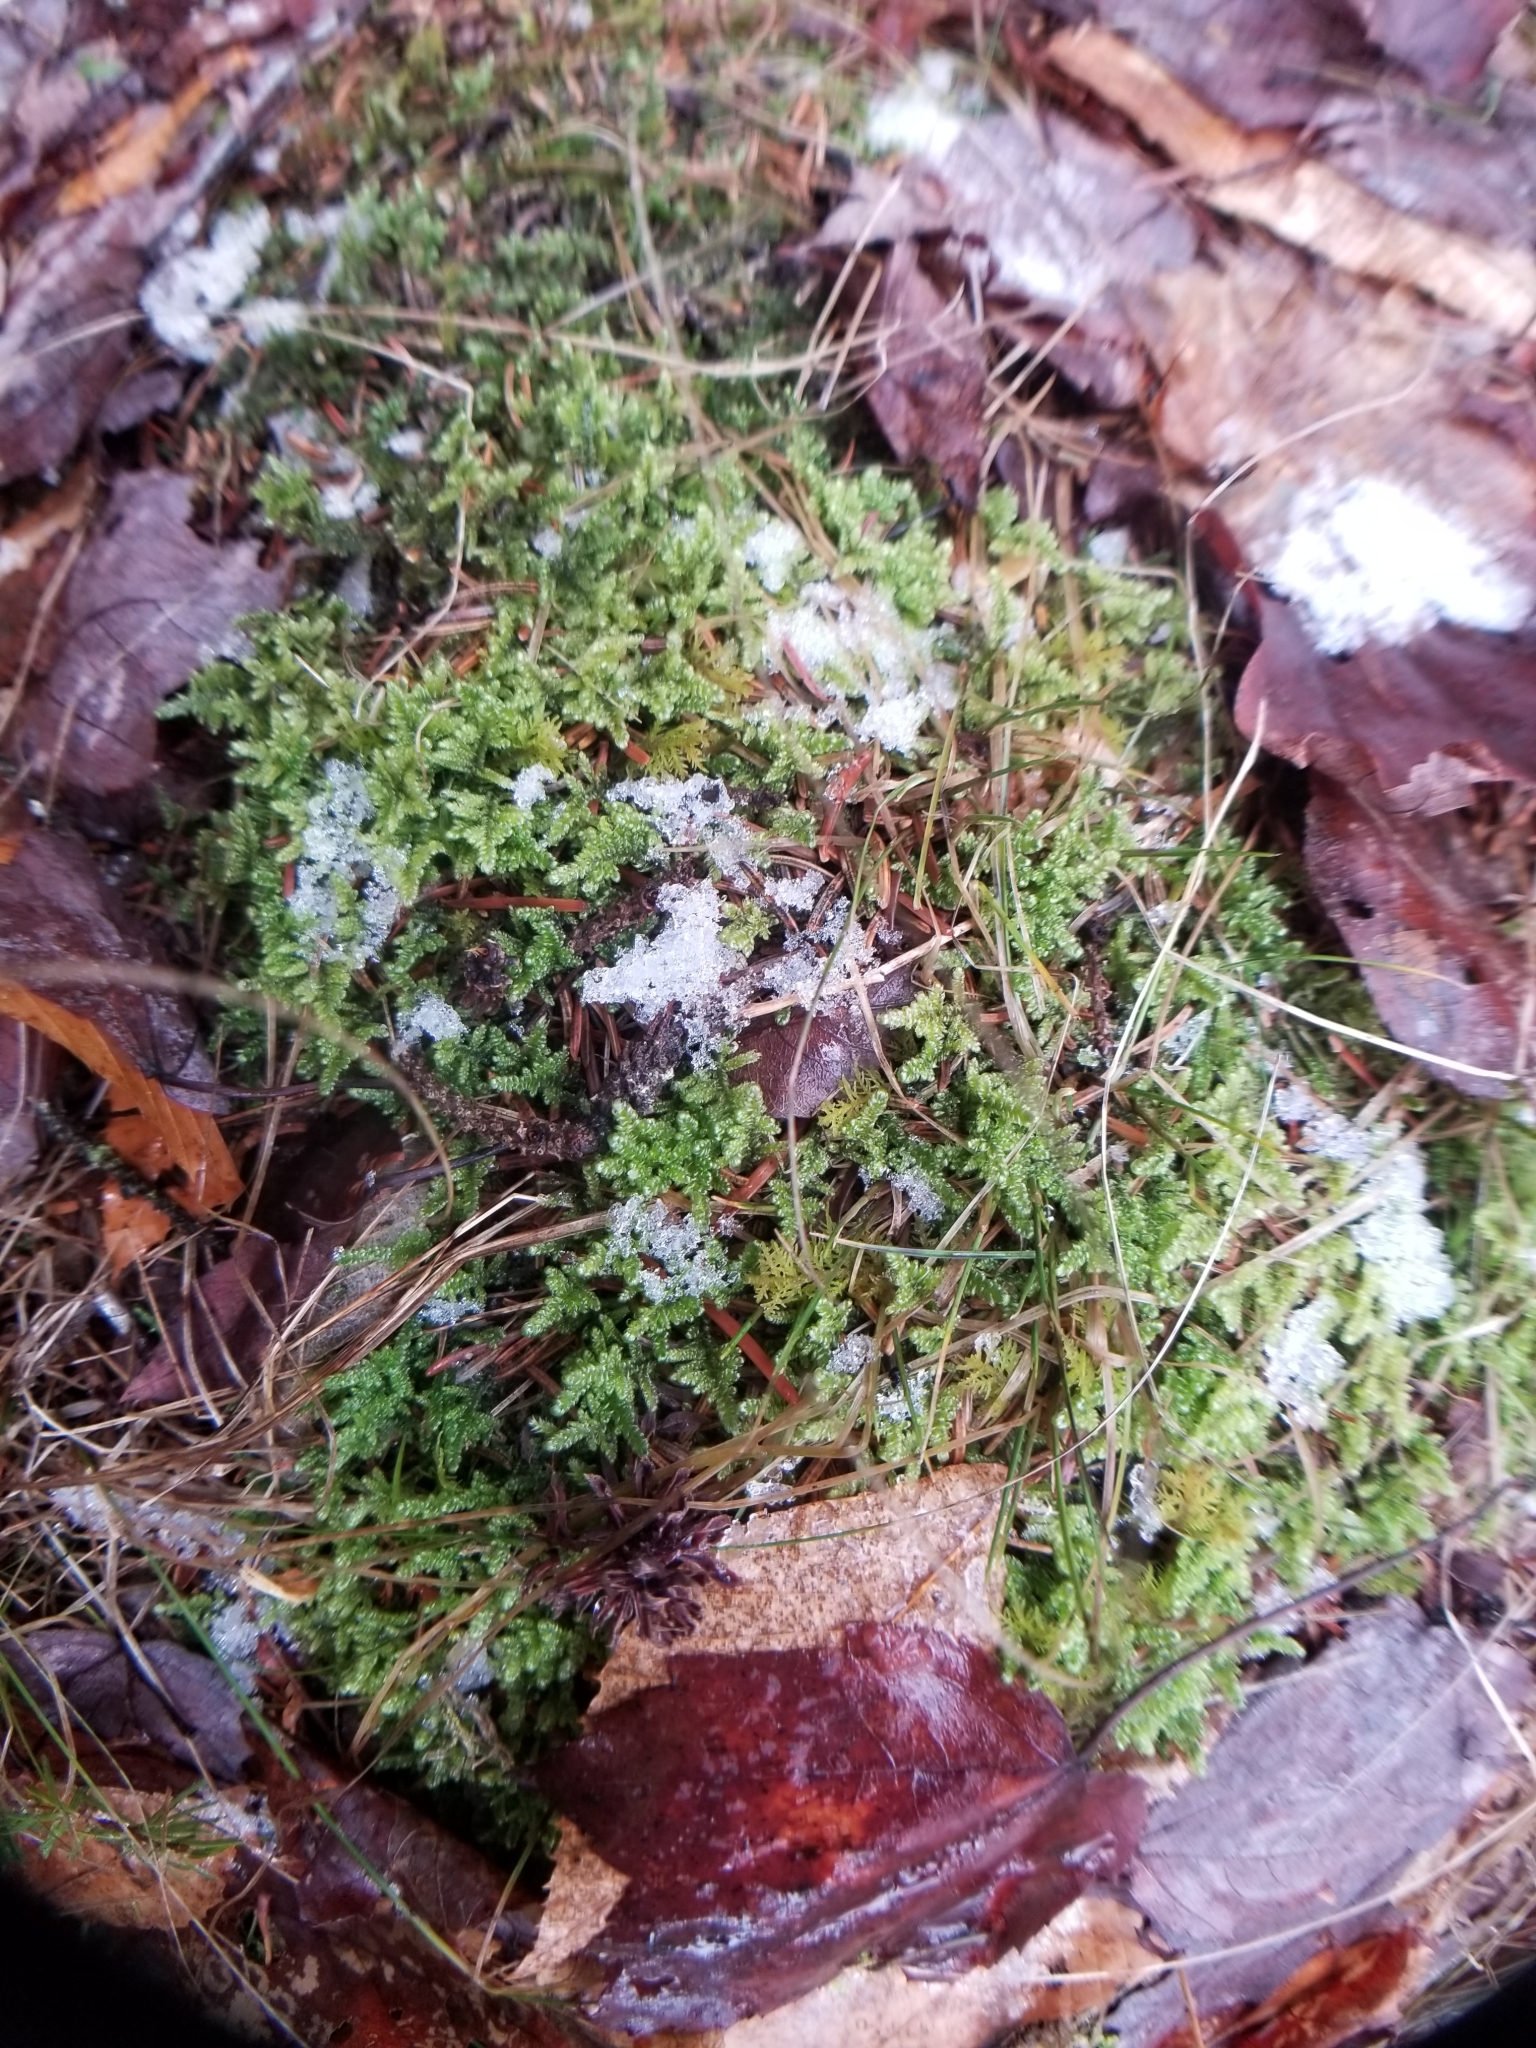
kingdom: Plantae
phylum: Bryophyta
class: Bryopsida
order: Hypnales
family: Callicladiaceae
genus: Callicladium
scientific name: Callicladium imponens
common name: Brocade moss
